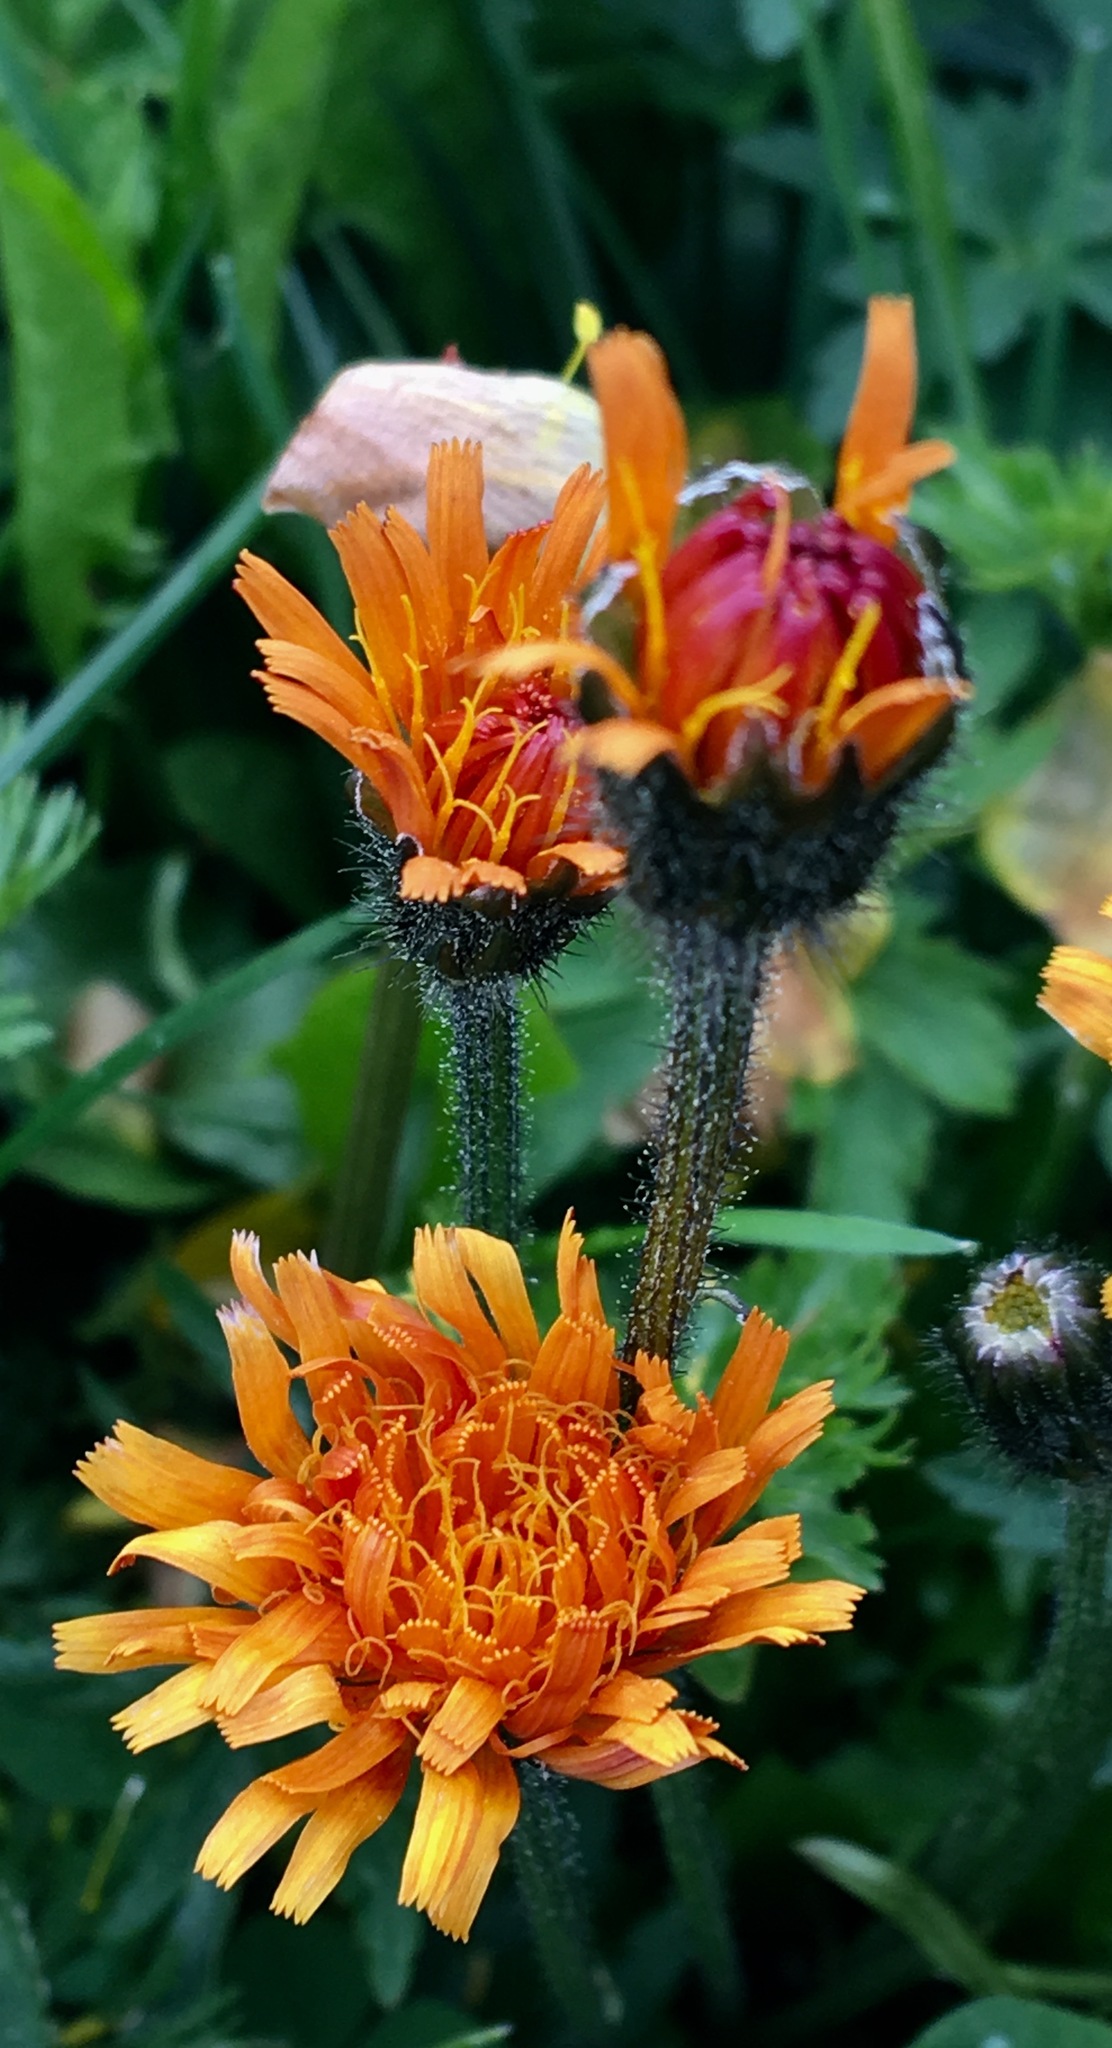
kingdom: Plantae
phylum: Tracheophyta
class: Magnoliopsida
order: Asterales
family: Asteraceae
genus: Crepis
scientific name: Crepis aurea
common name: Golden hawk's-beard
